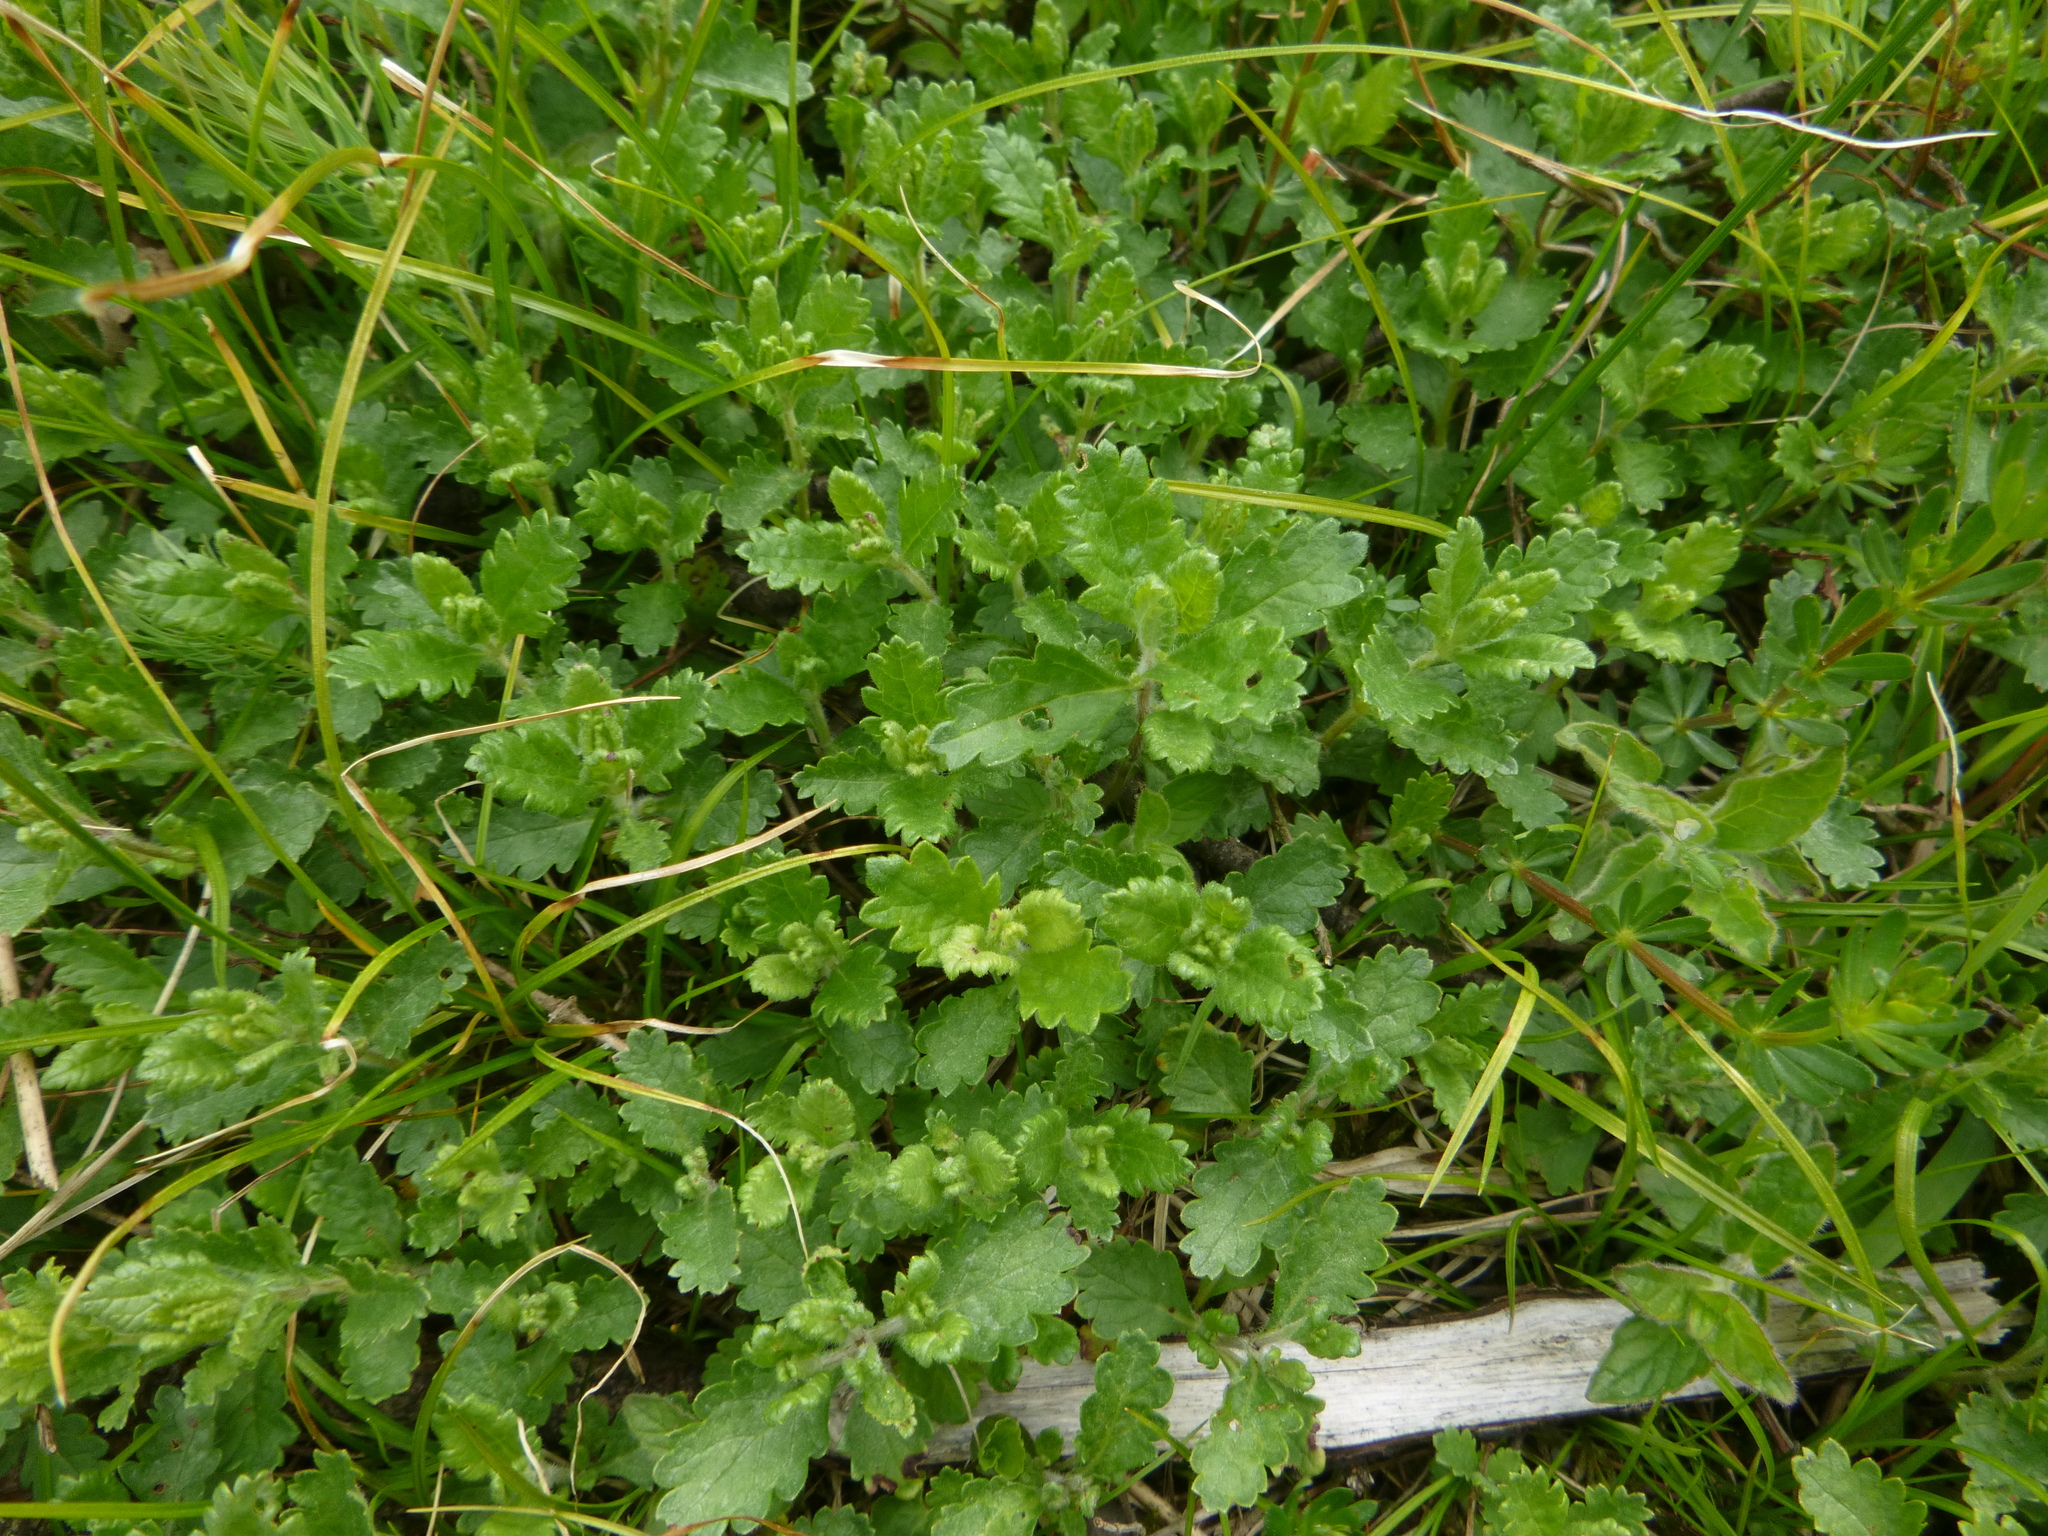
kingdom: Plantae
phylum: Tracheophyta
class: Magnoliopsida
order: Lamiales
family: Lamiaceae
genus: Teucrium
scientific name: Teucrium chamaedrys
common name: Wall germander
